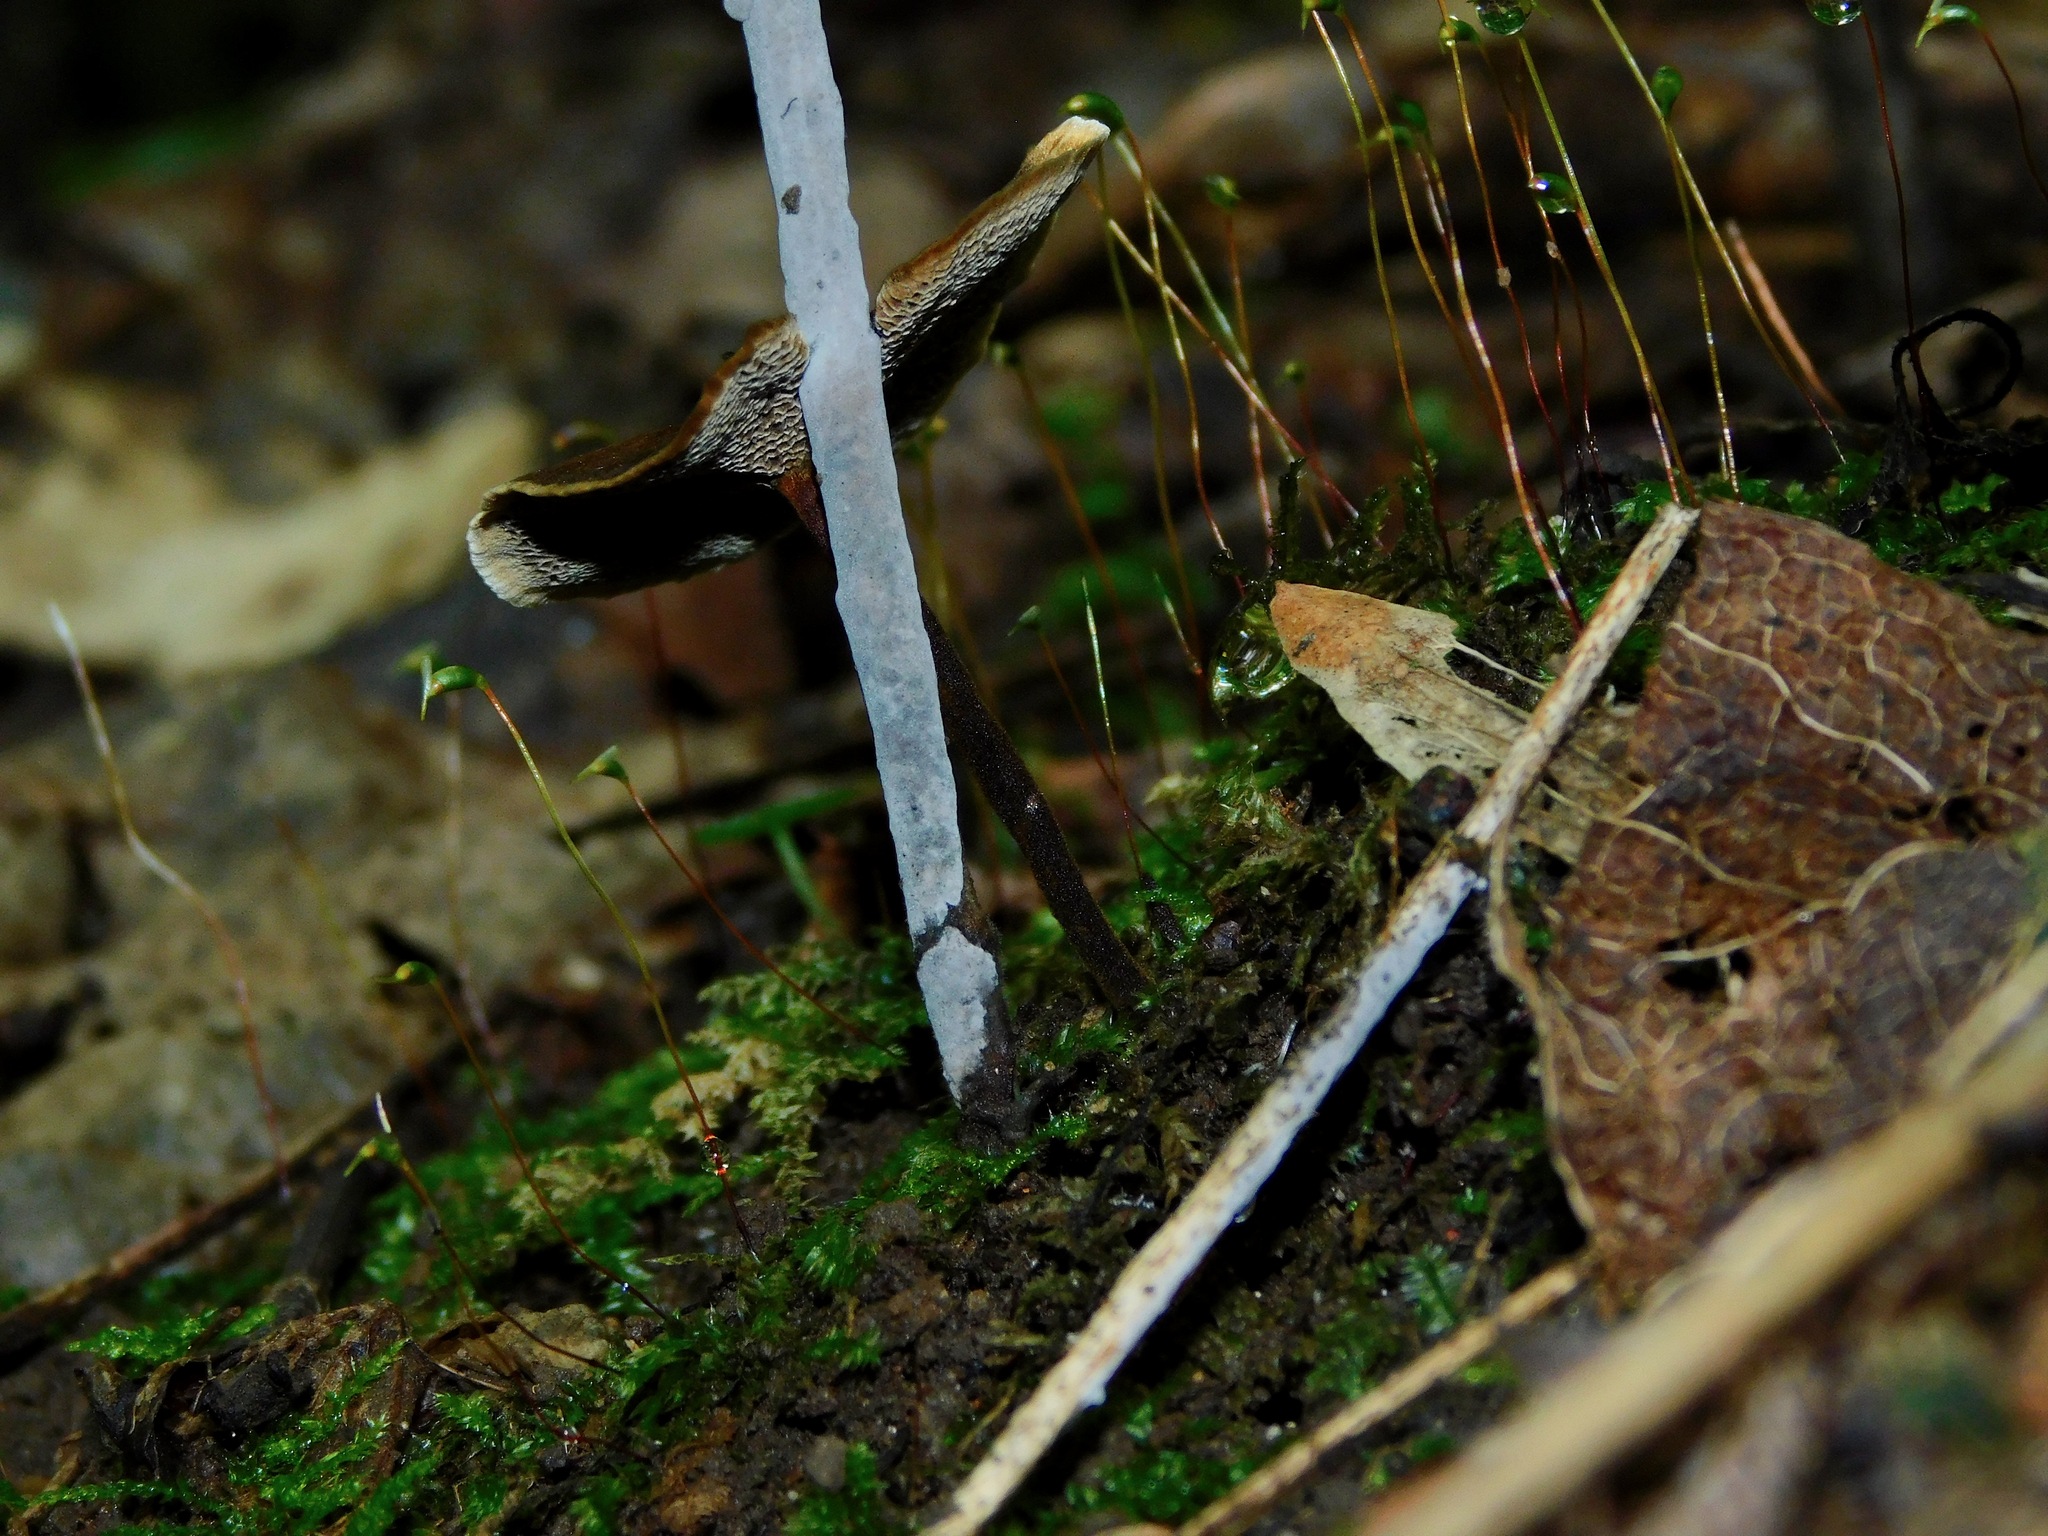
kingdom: Fungi
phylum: Basidiomycota
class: Agaricomycetes
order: Hymenochaetales
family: Hymenochaetaceae
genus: Coltricia
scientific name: Coltricia australica
